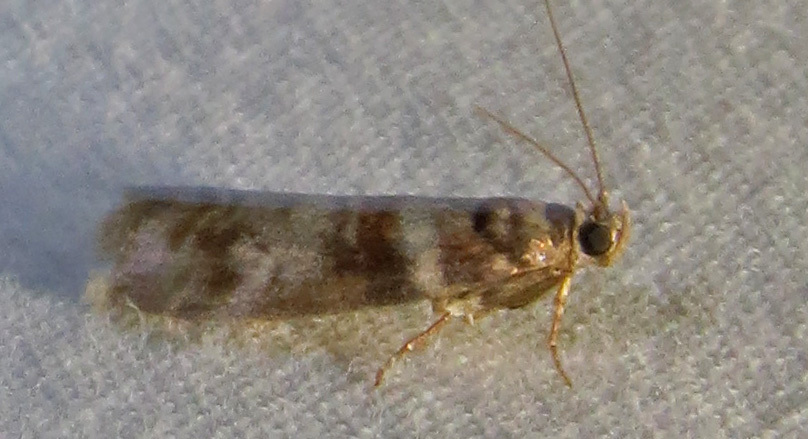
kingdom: Animalia
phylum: Arthropoda
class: Insecta
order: Lepidoptera
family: Pyralidae
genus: Sciota
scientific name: Sciota uvinella
